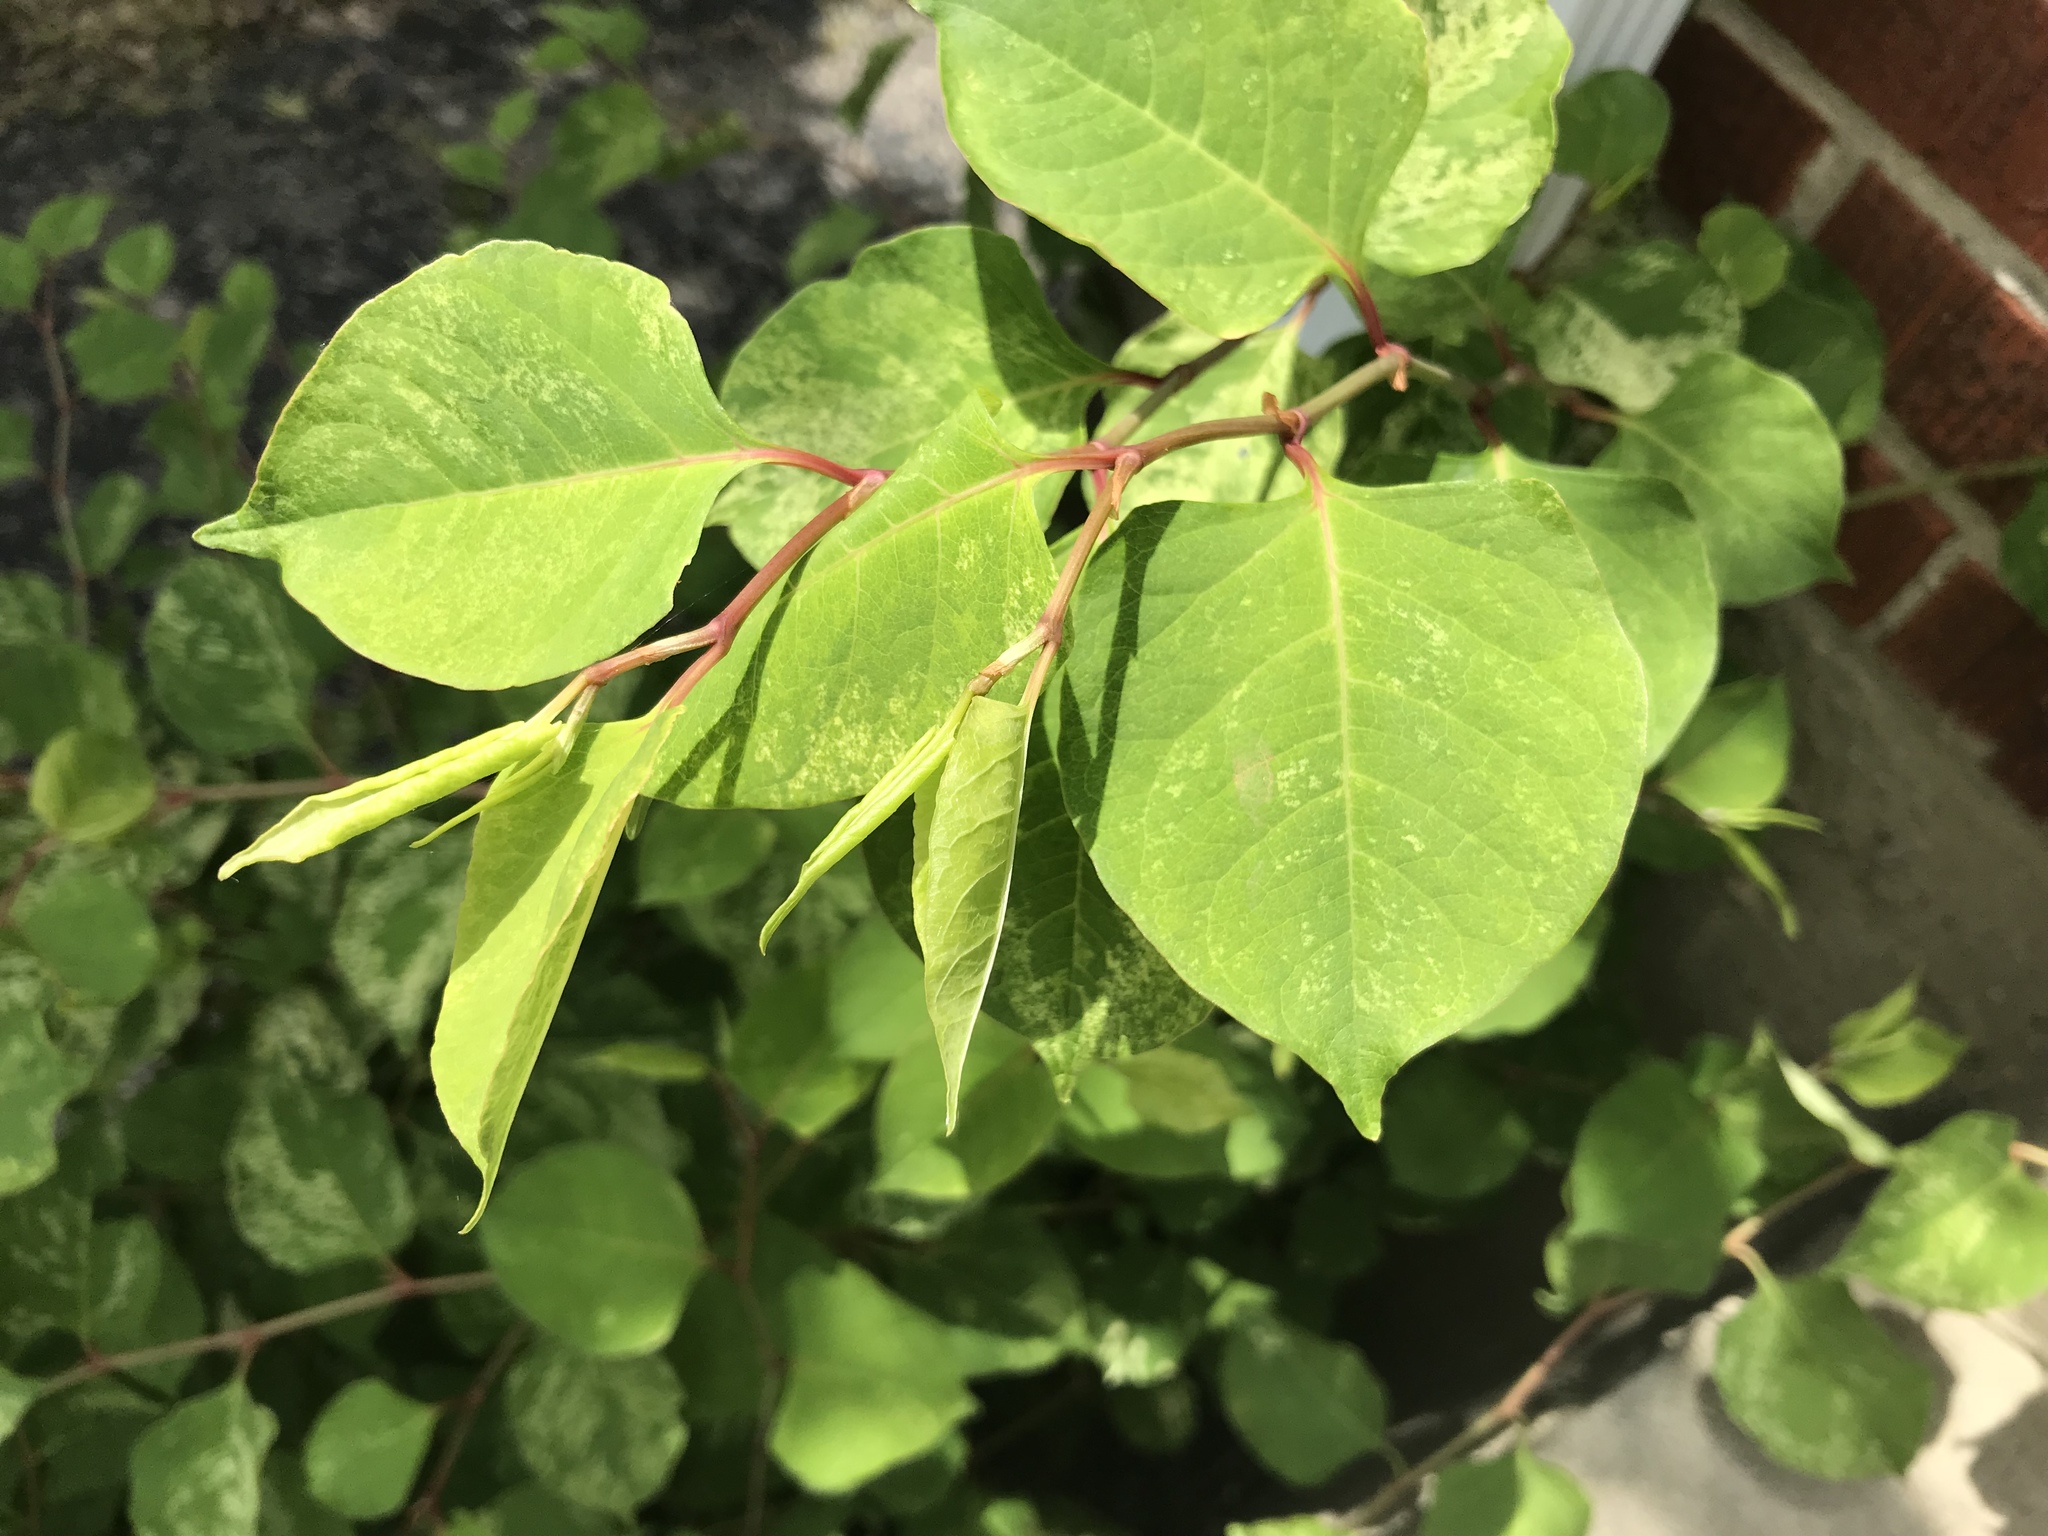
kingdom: Plantae
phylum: Tracheophyta
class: Magnoliopsida
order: Caryophyllales
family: Polygonaceae
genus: Reynoutria
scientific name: Reynoutria japonica
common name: Japanese knotweed
